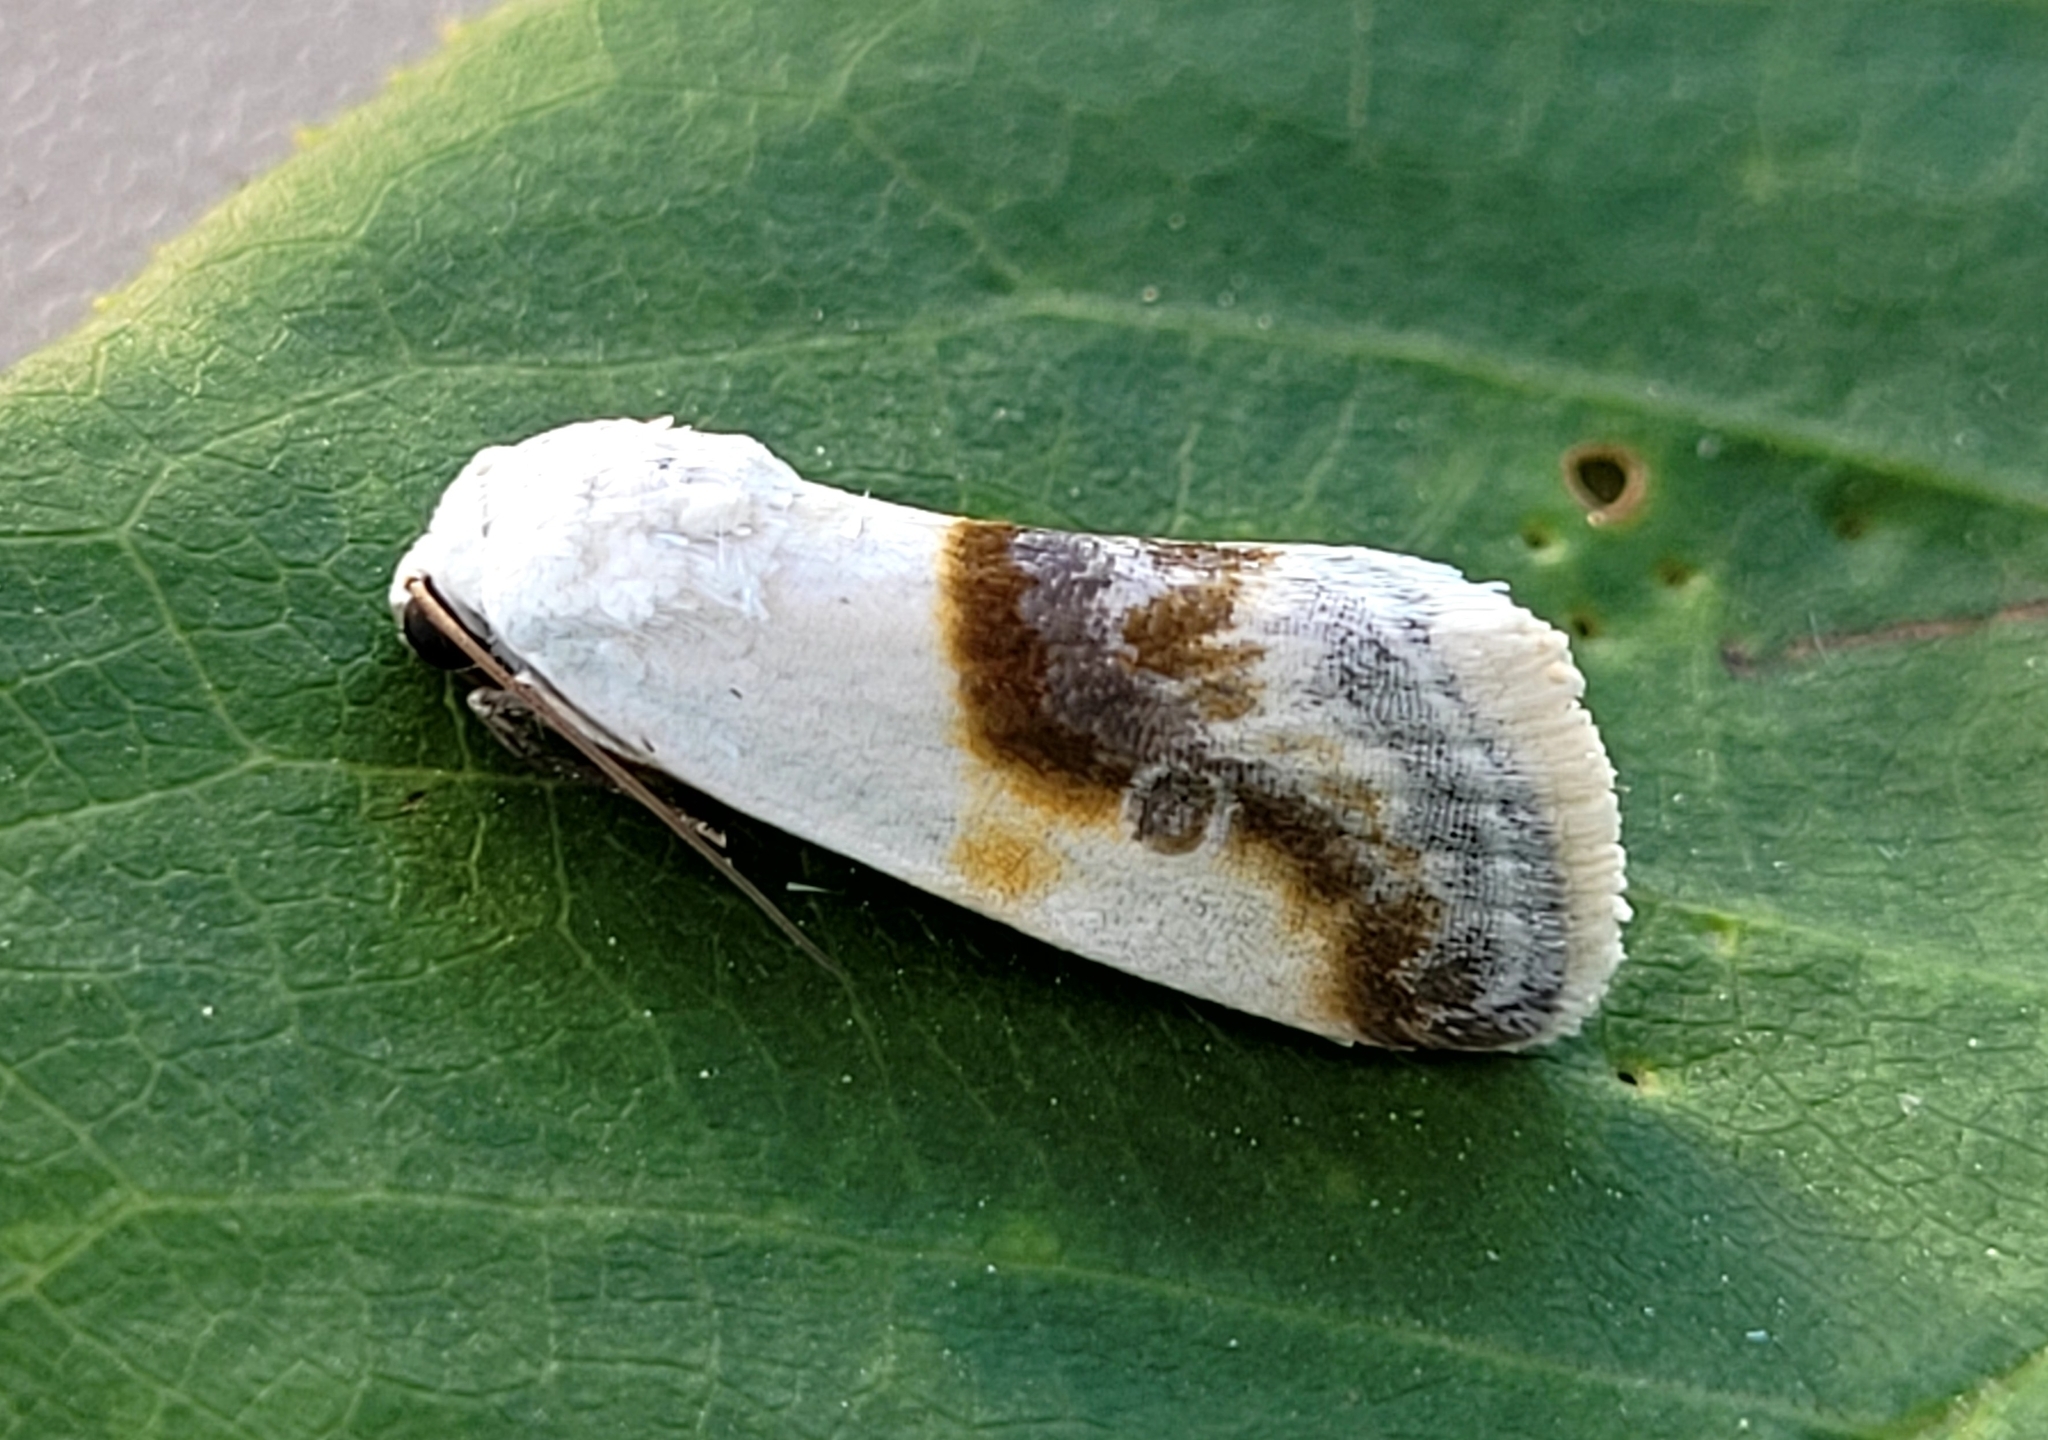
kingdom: Animalia
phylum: Arthropoda
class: Insecta
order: Lepidoptera
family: Noctuidae
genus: Acontia
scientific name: Acontia binocula
